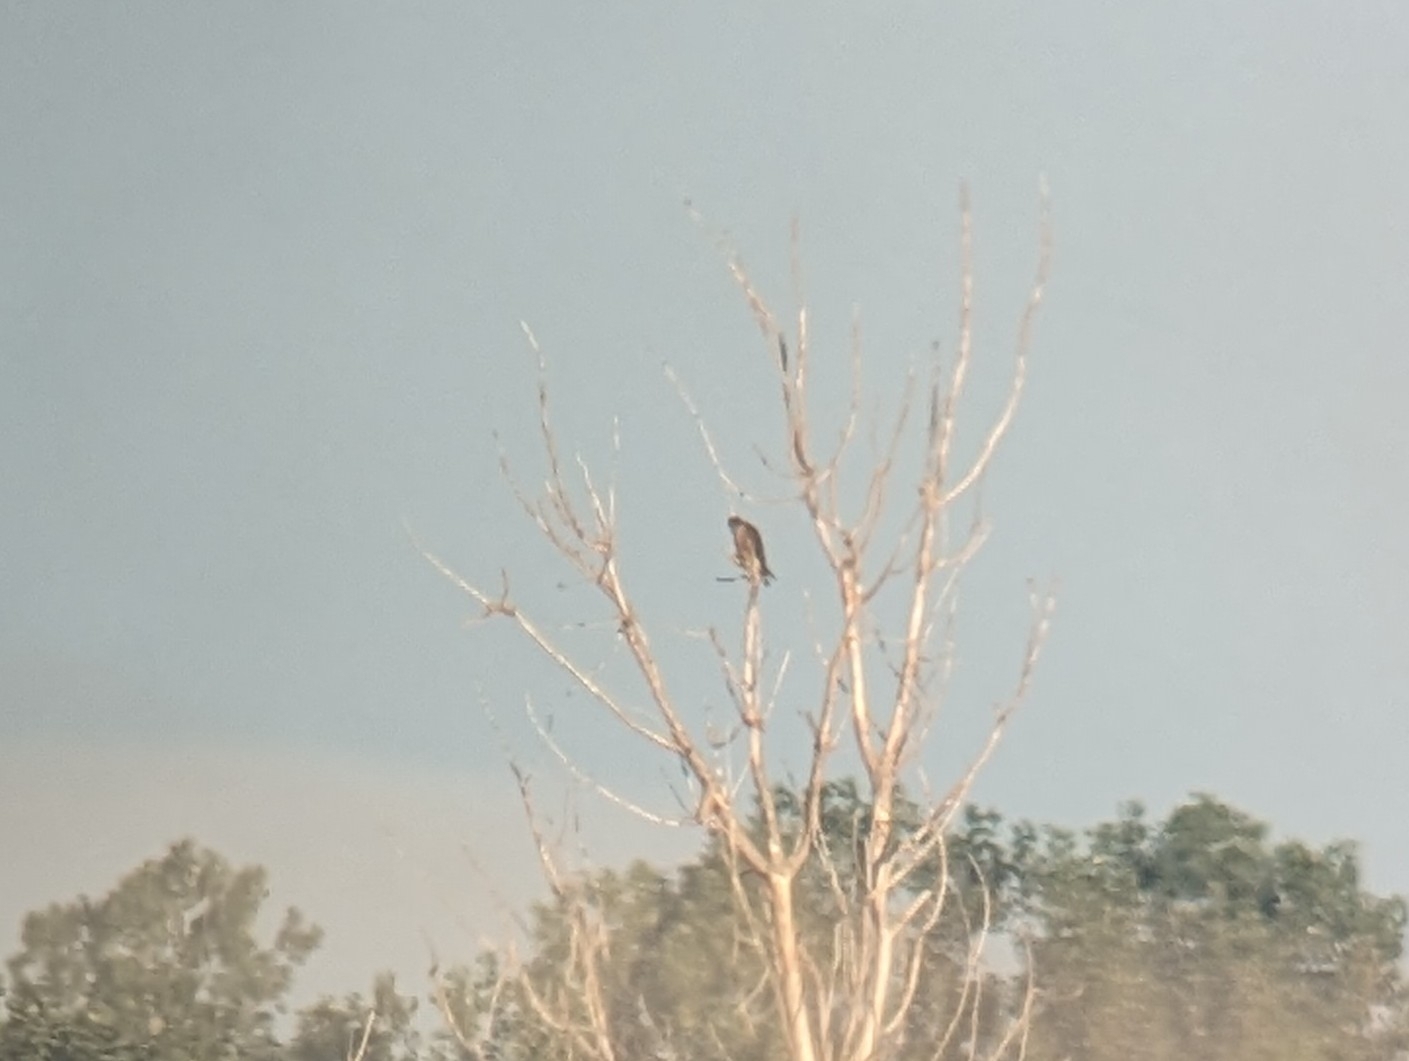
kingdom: Animalia
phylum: Chordata
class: Aves
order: Falconiformes
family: Falconidae
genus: Falco
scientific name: Falco columbarius
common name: Merlin
